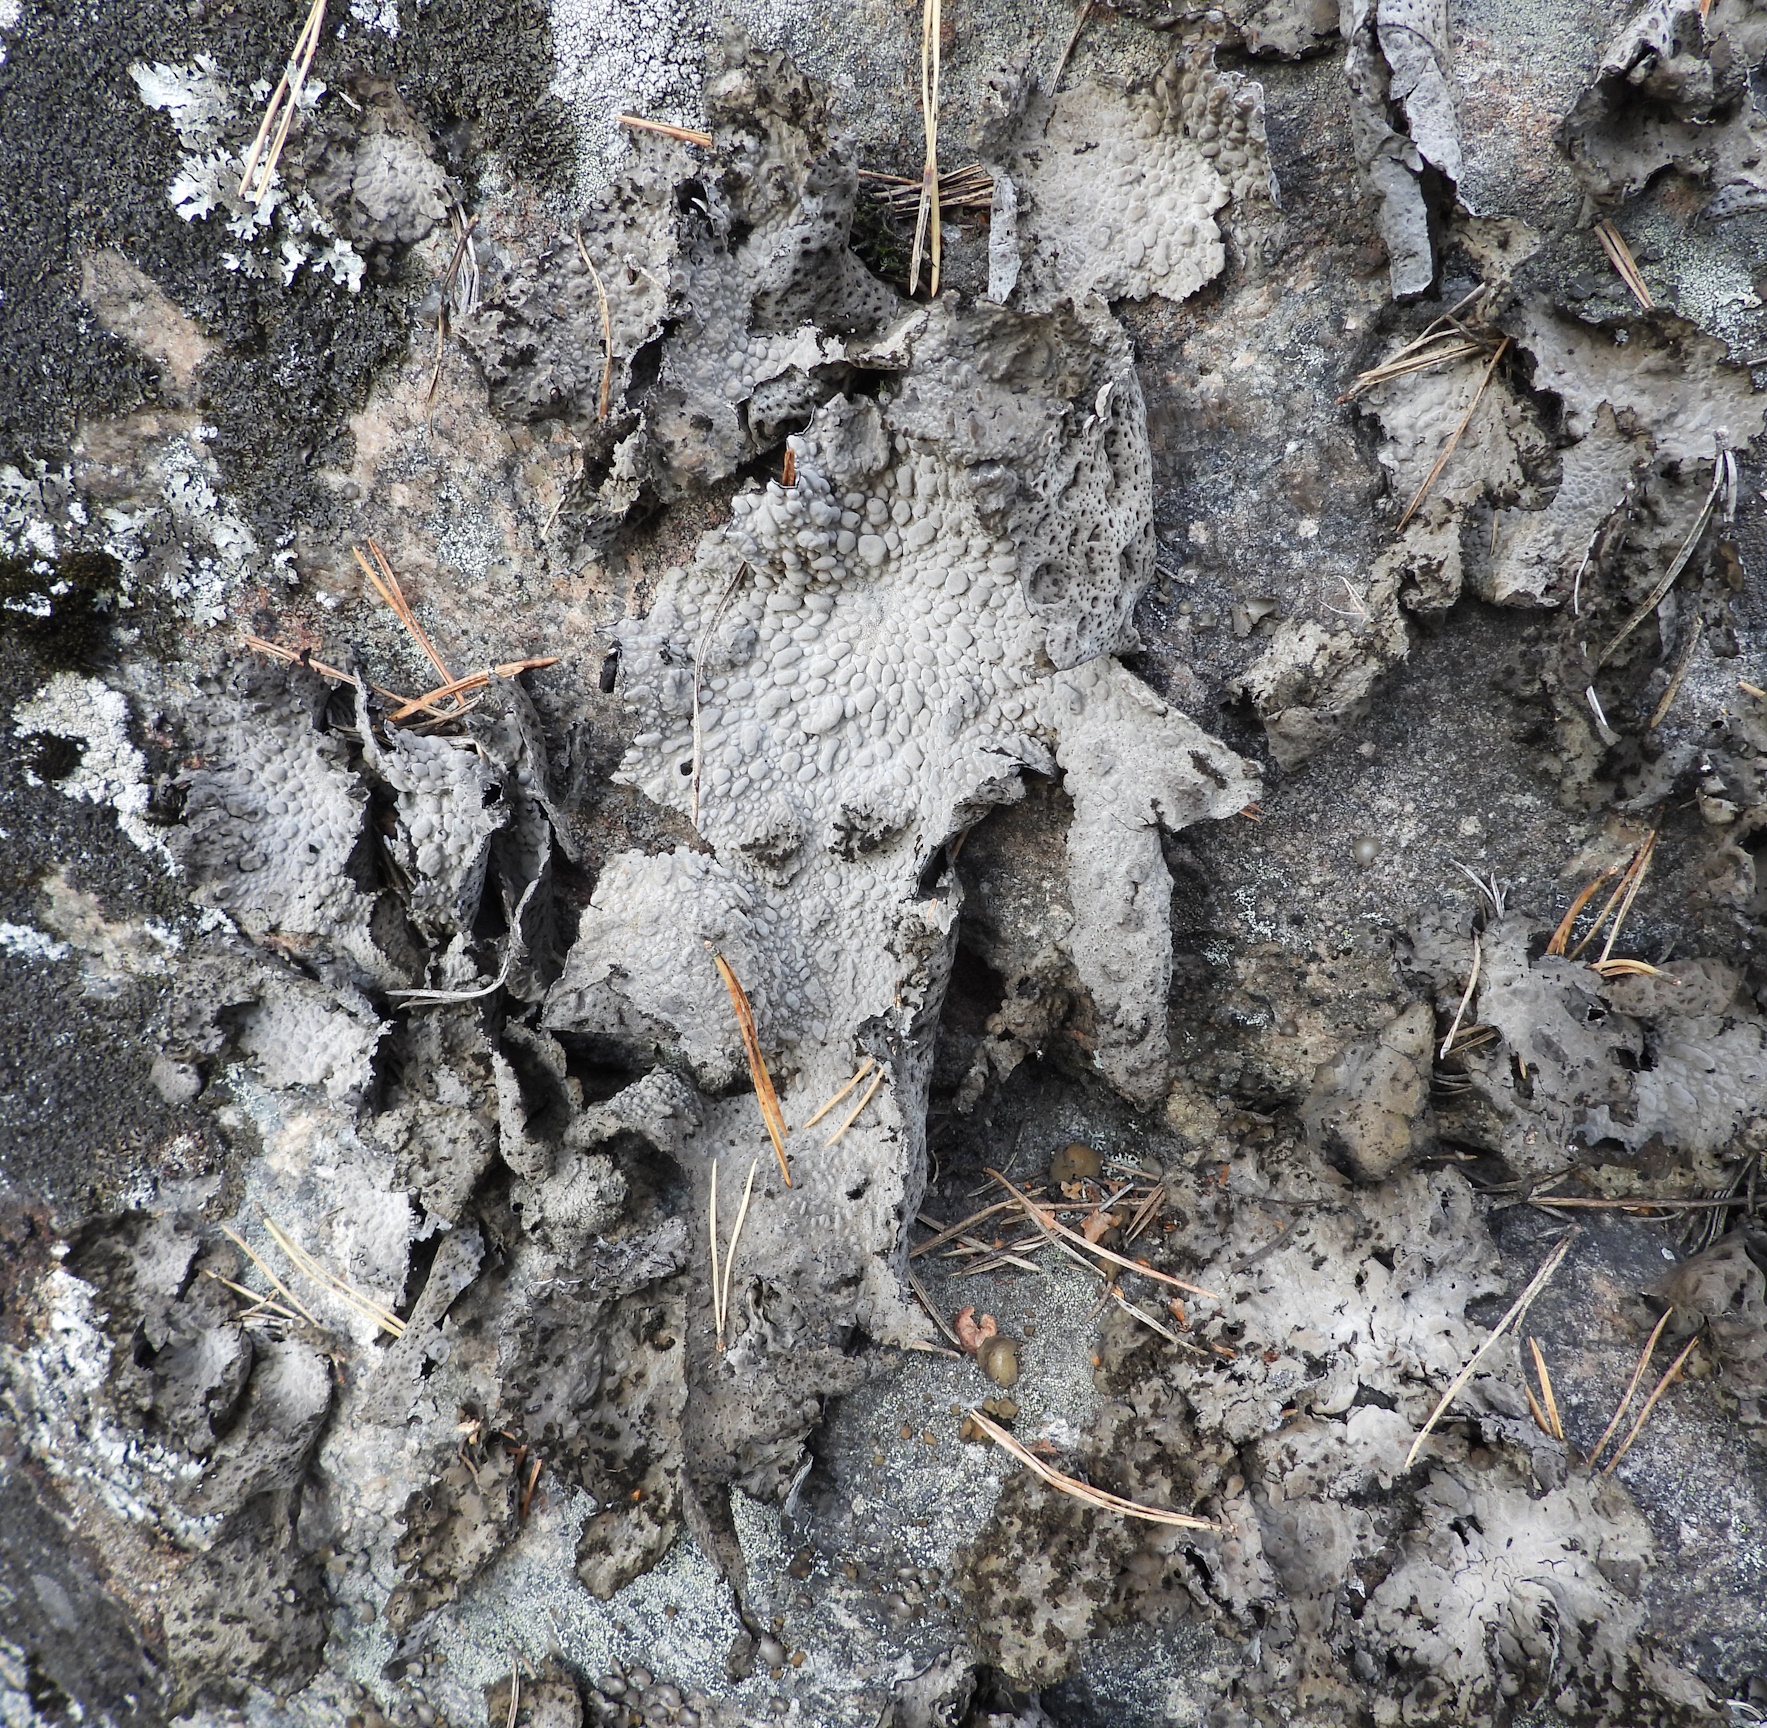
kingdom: Fungi
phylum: Ascomycota
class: Lecanoromycetes
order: Umbilicariales
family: Umbilicariaceae
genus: Lasallia
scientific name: Lasallia pustulata
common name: Blistered toadskin lichen
